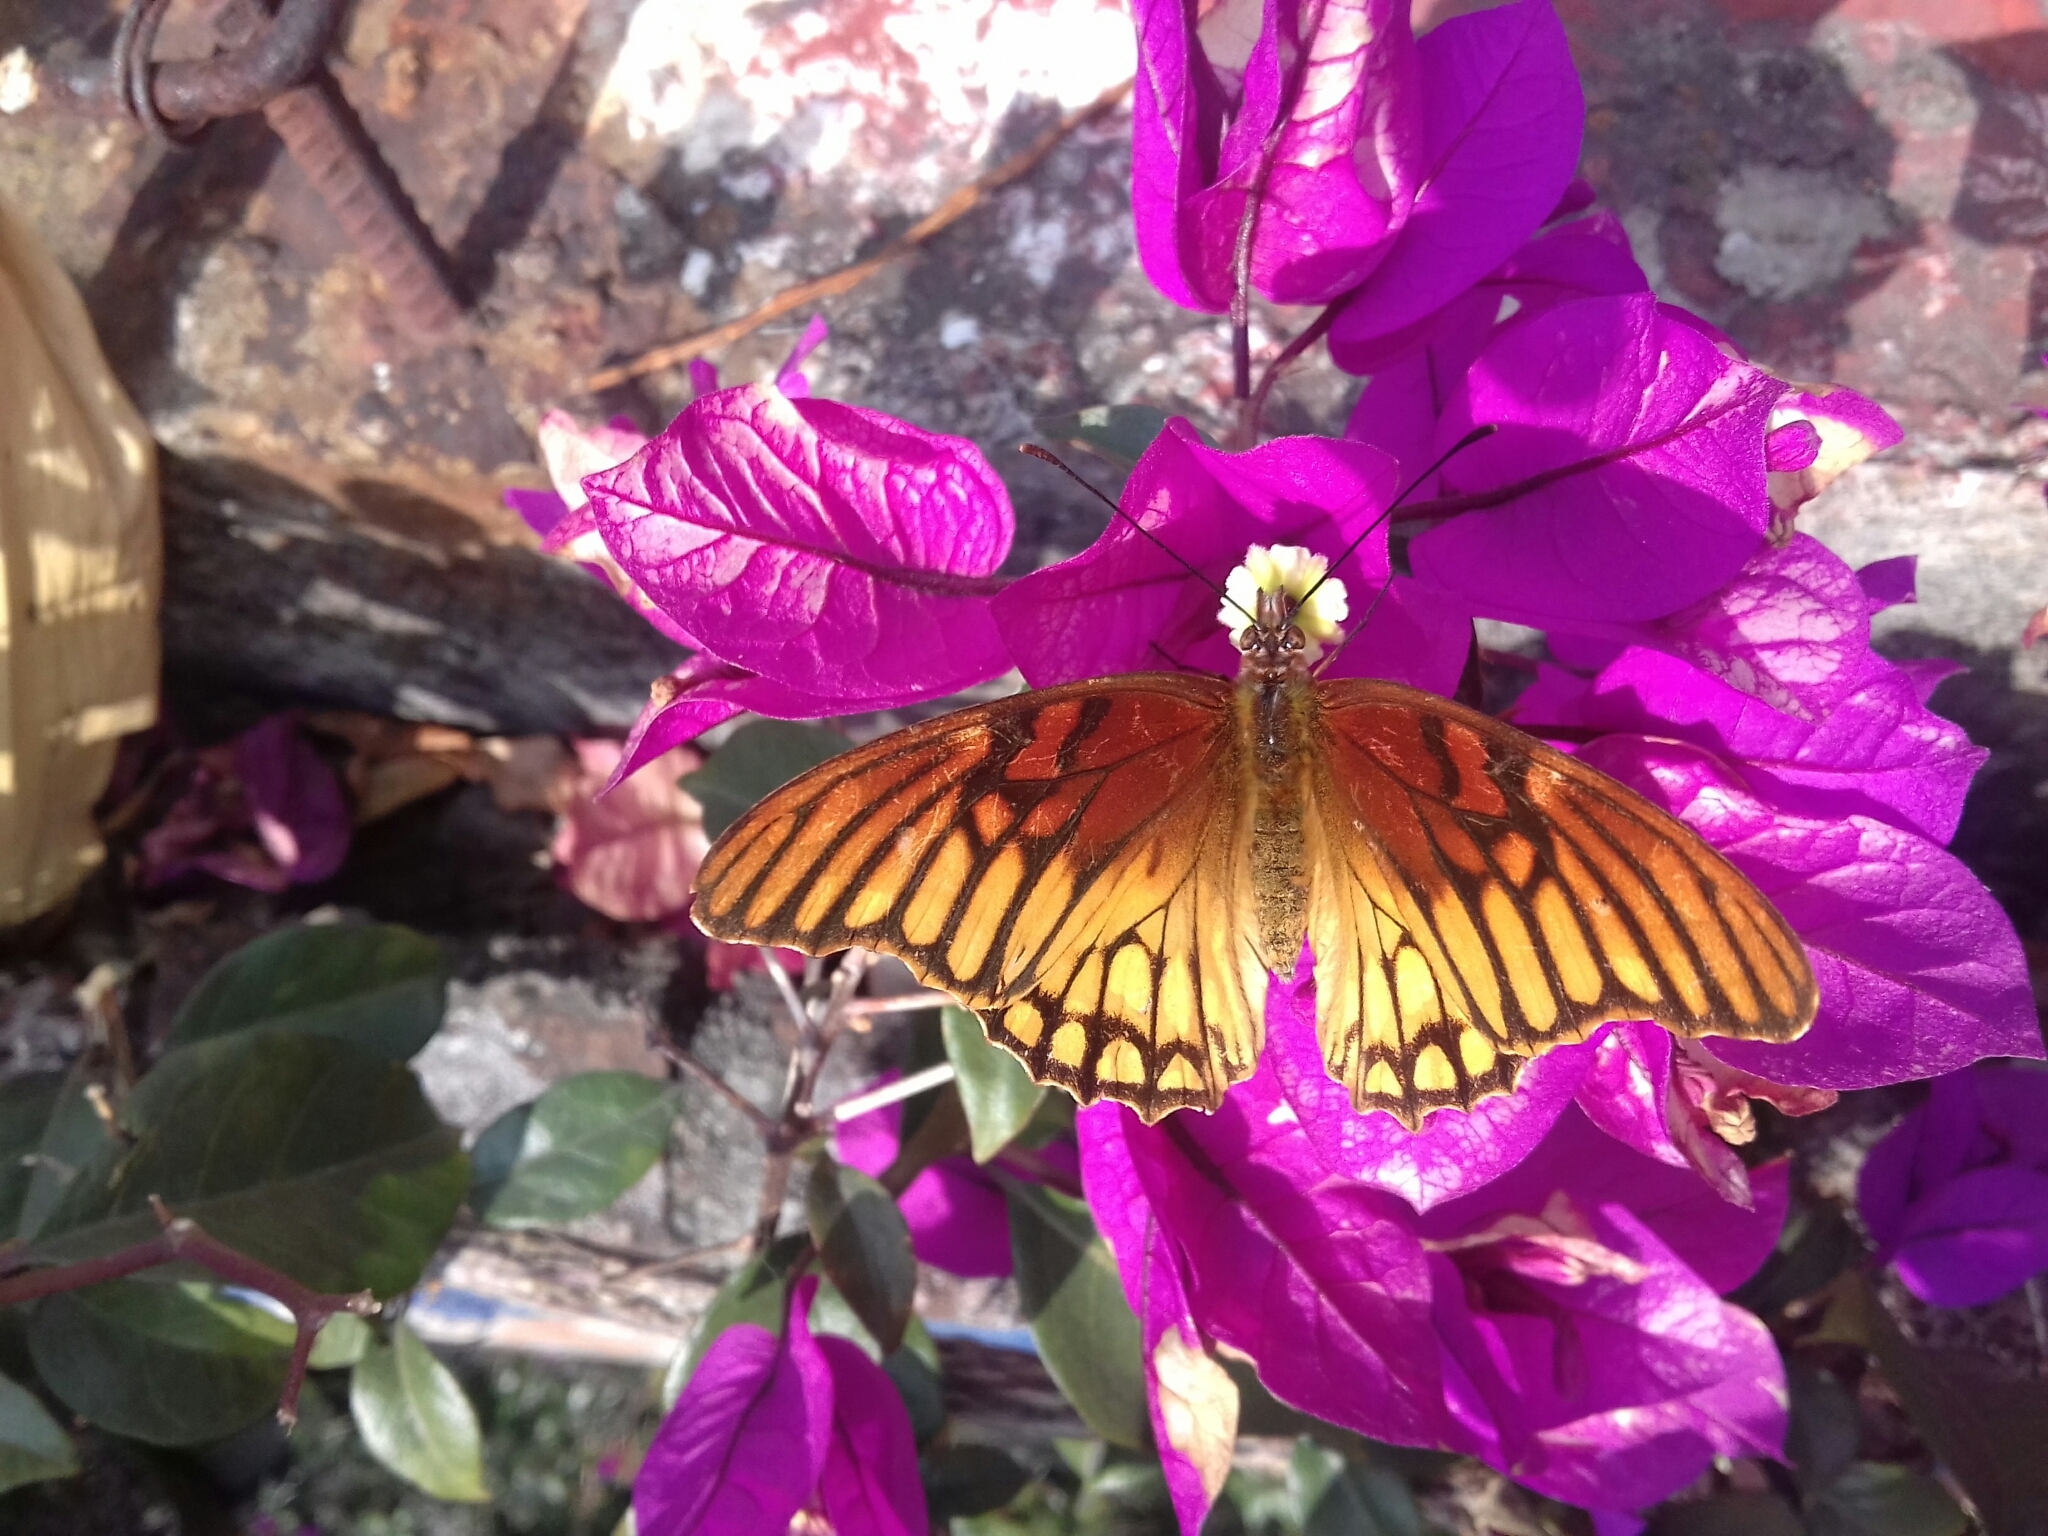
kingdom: Animalia
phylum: Arthropoda
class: Insecta
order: Lepidoptera
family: Nymphalidae
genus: Dione
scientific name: Dione moneta
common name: Mexican silverspot
